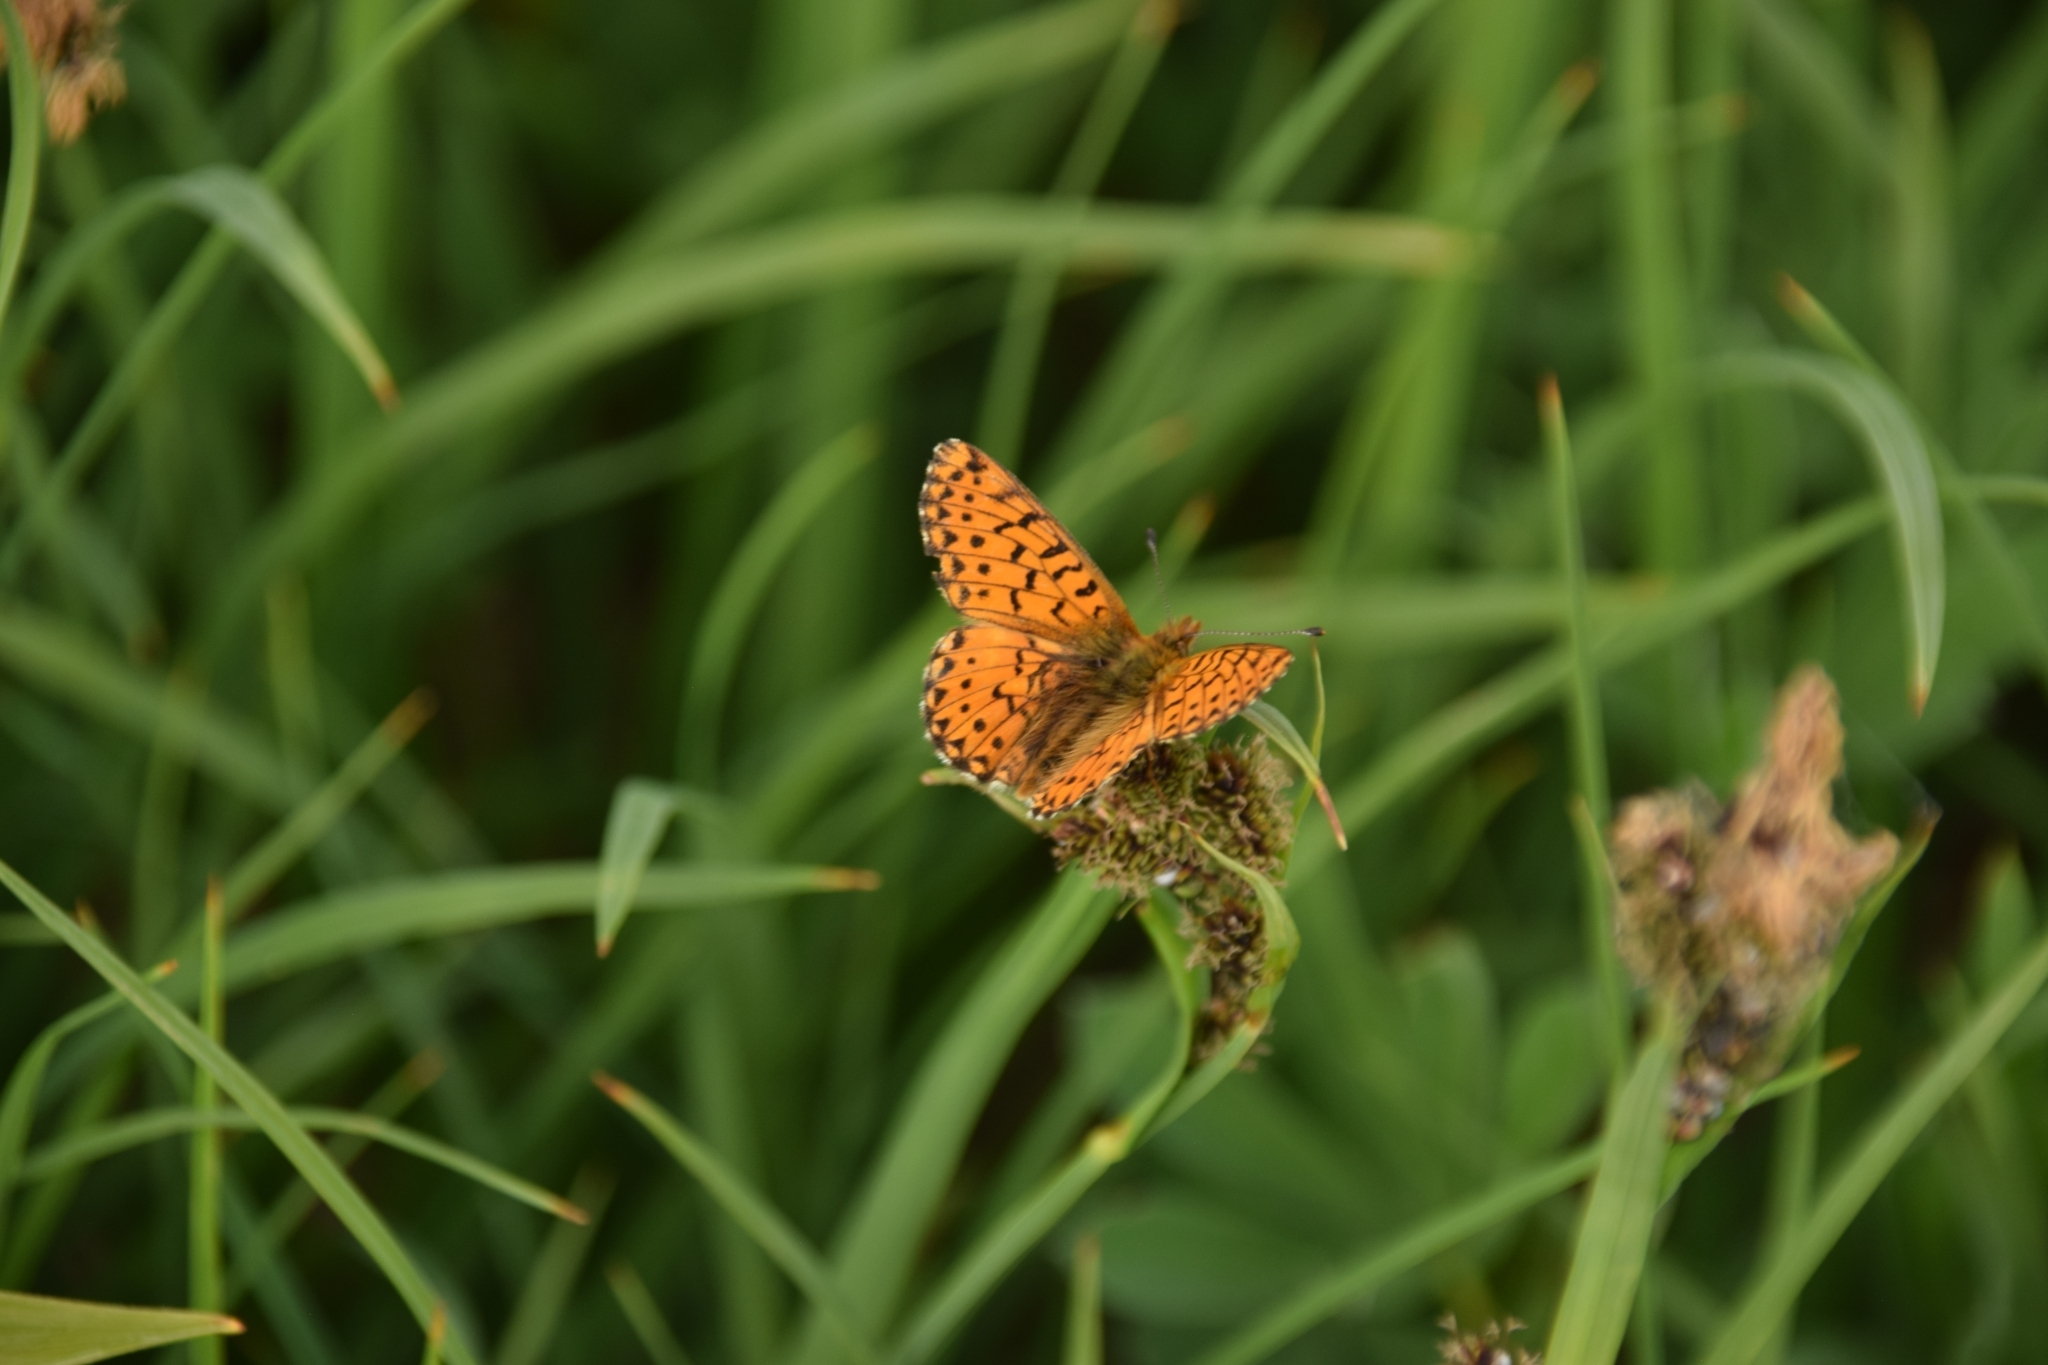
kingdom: Animalia
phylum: Arthropoda
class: Insecta
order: Lepidoptera
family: Nymphalidae
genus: Boloria
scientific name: Boloria chariclea
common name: Arctic fritillary
